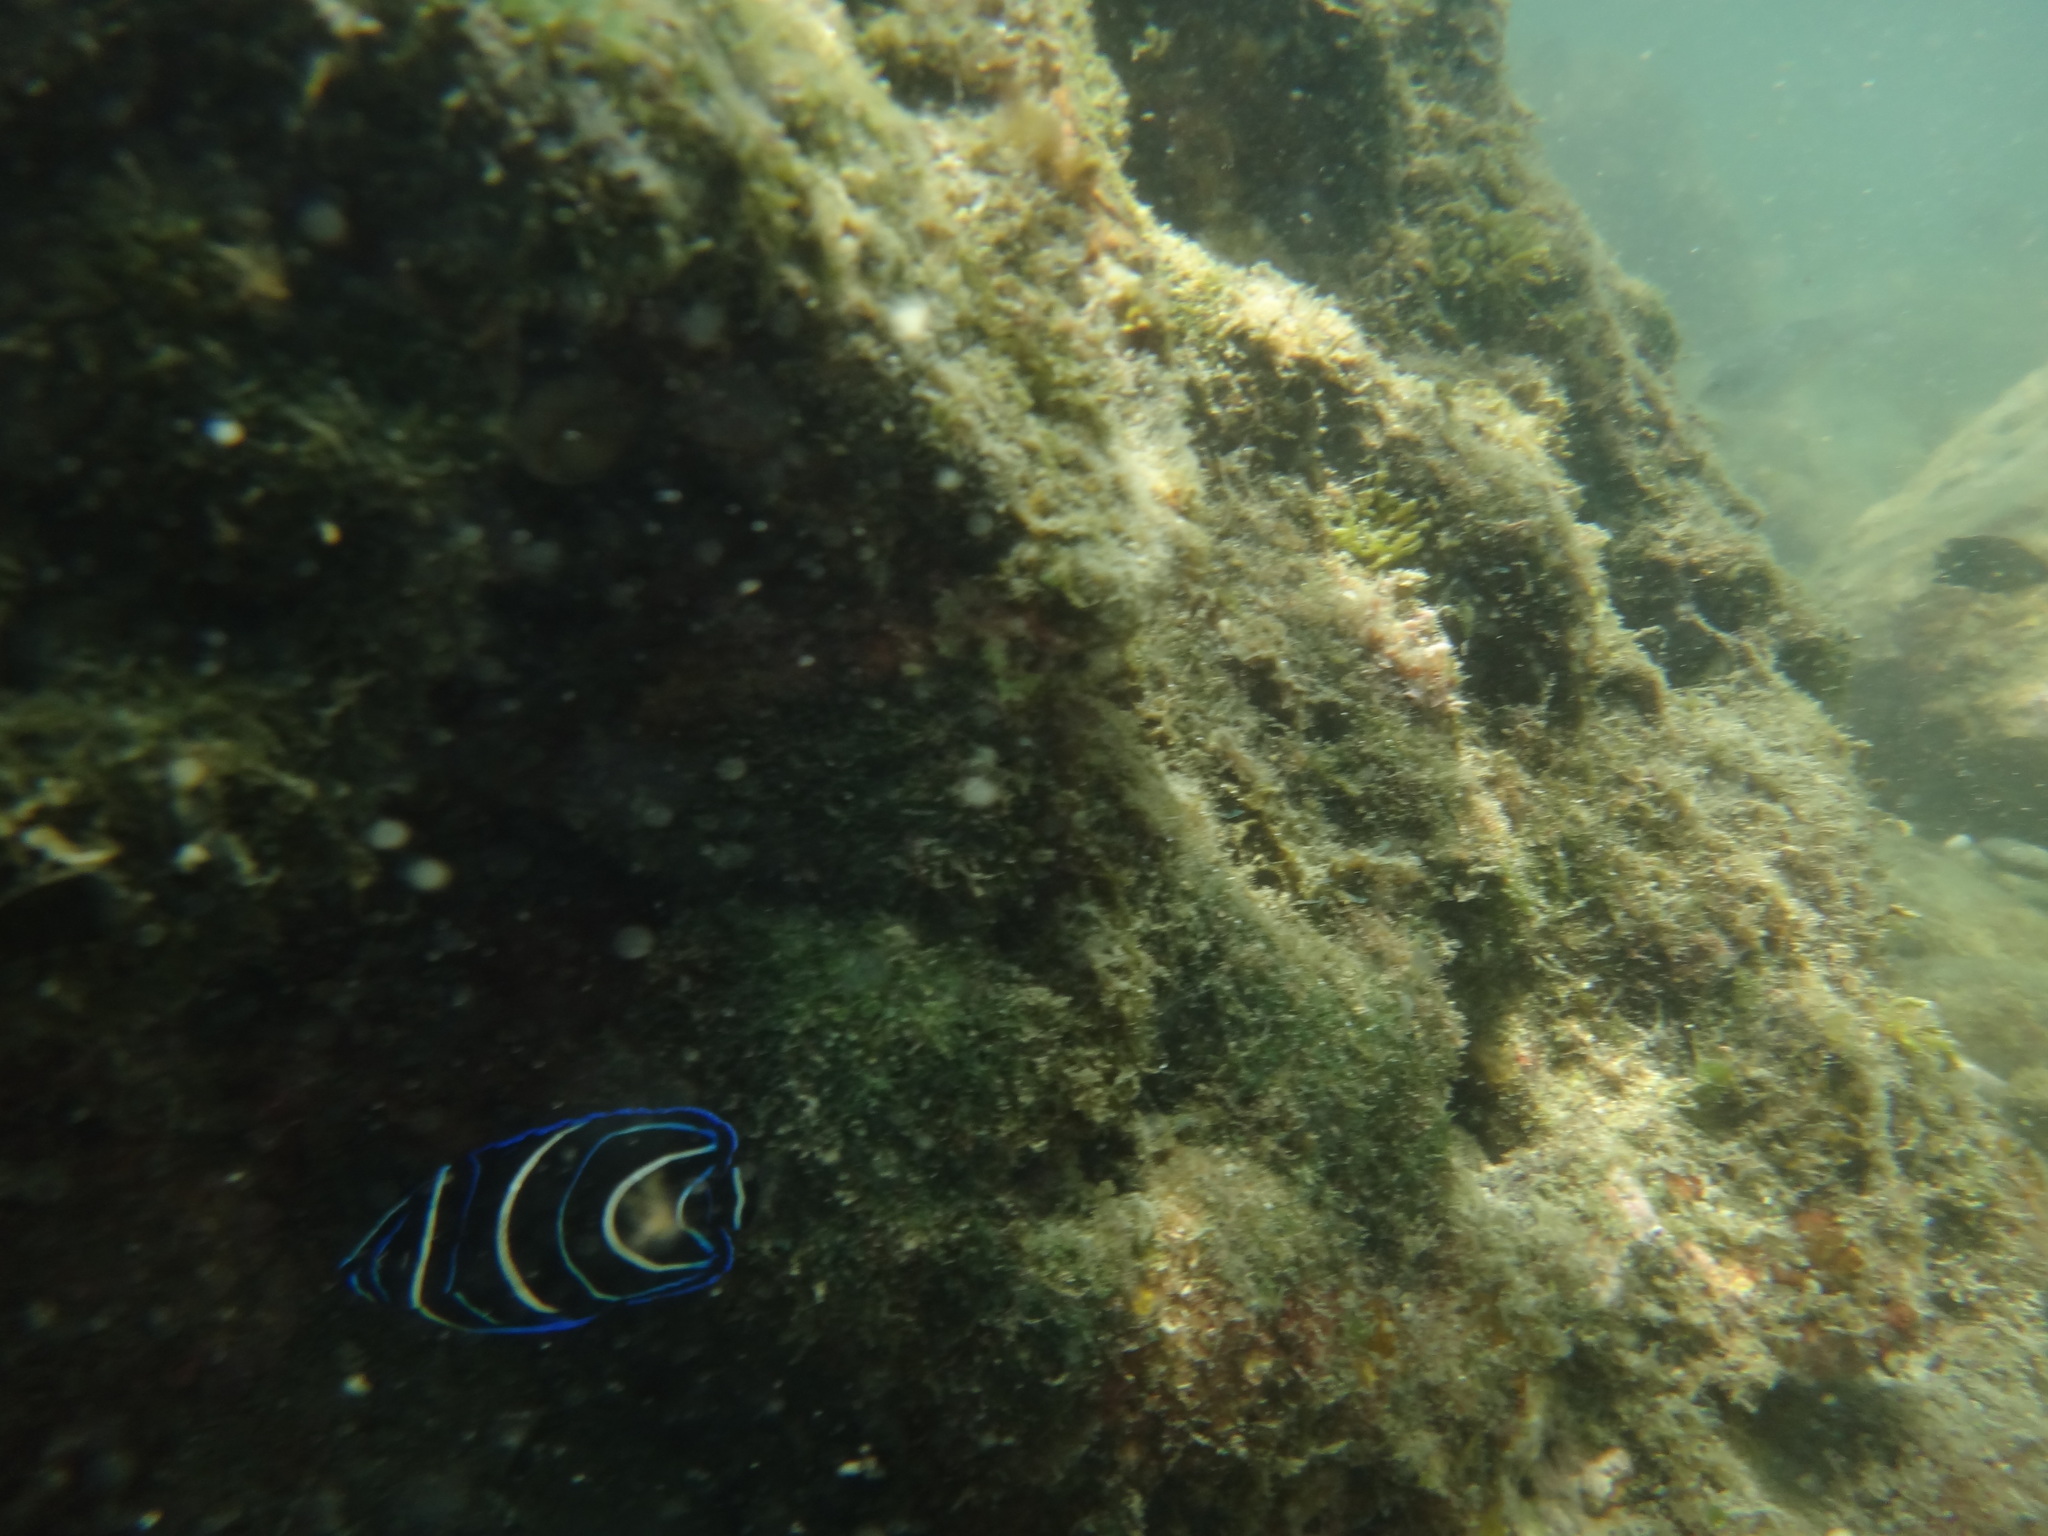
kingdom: Animalia
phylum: Chordata
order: Perciformes
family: Pomacanthidae
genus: Pomacanthus
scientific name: Pomacanthus semicirculatus
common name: Semicircle angelfish
